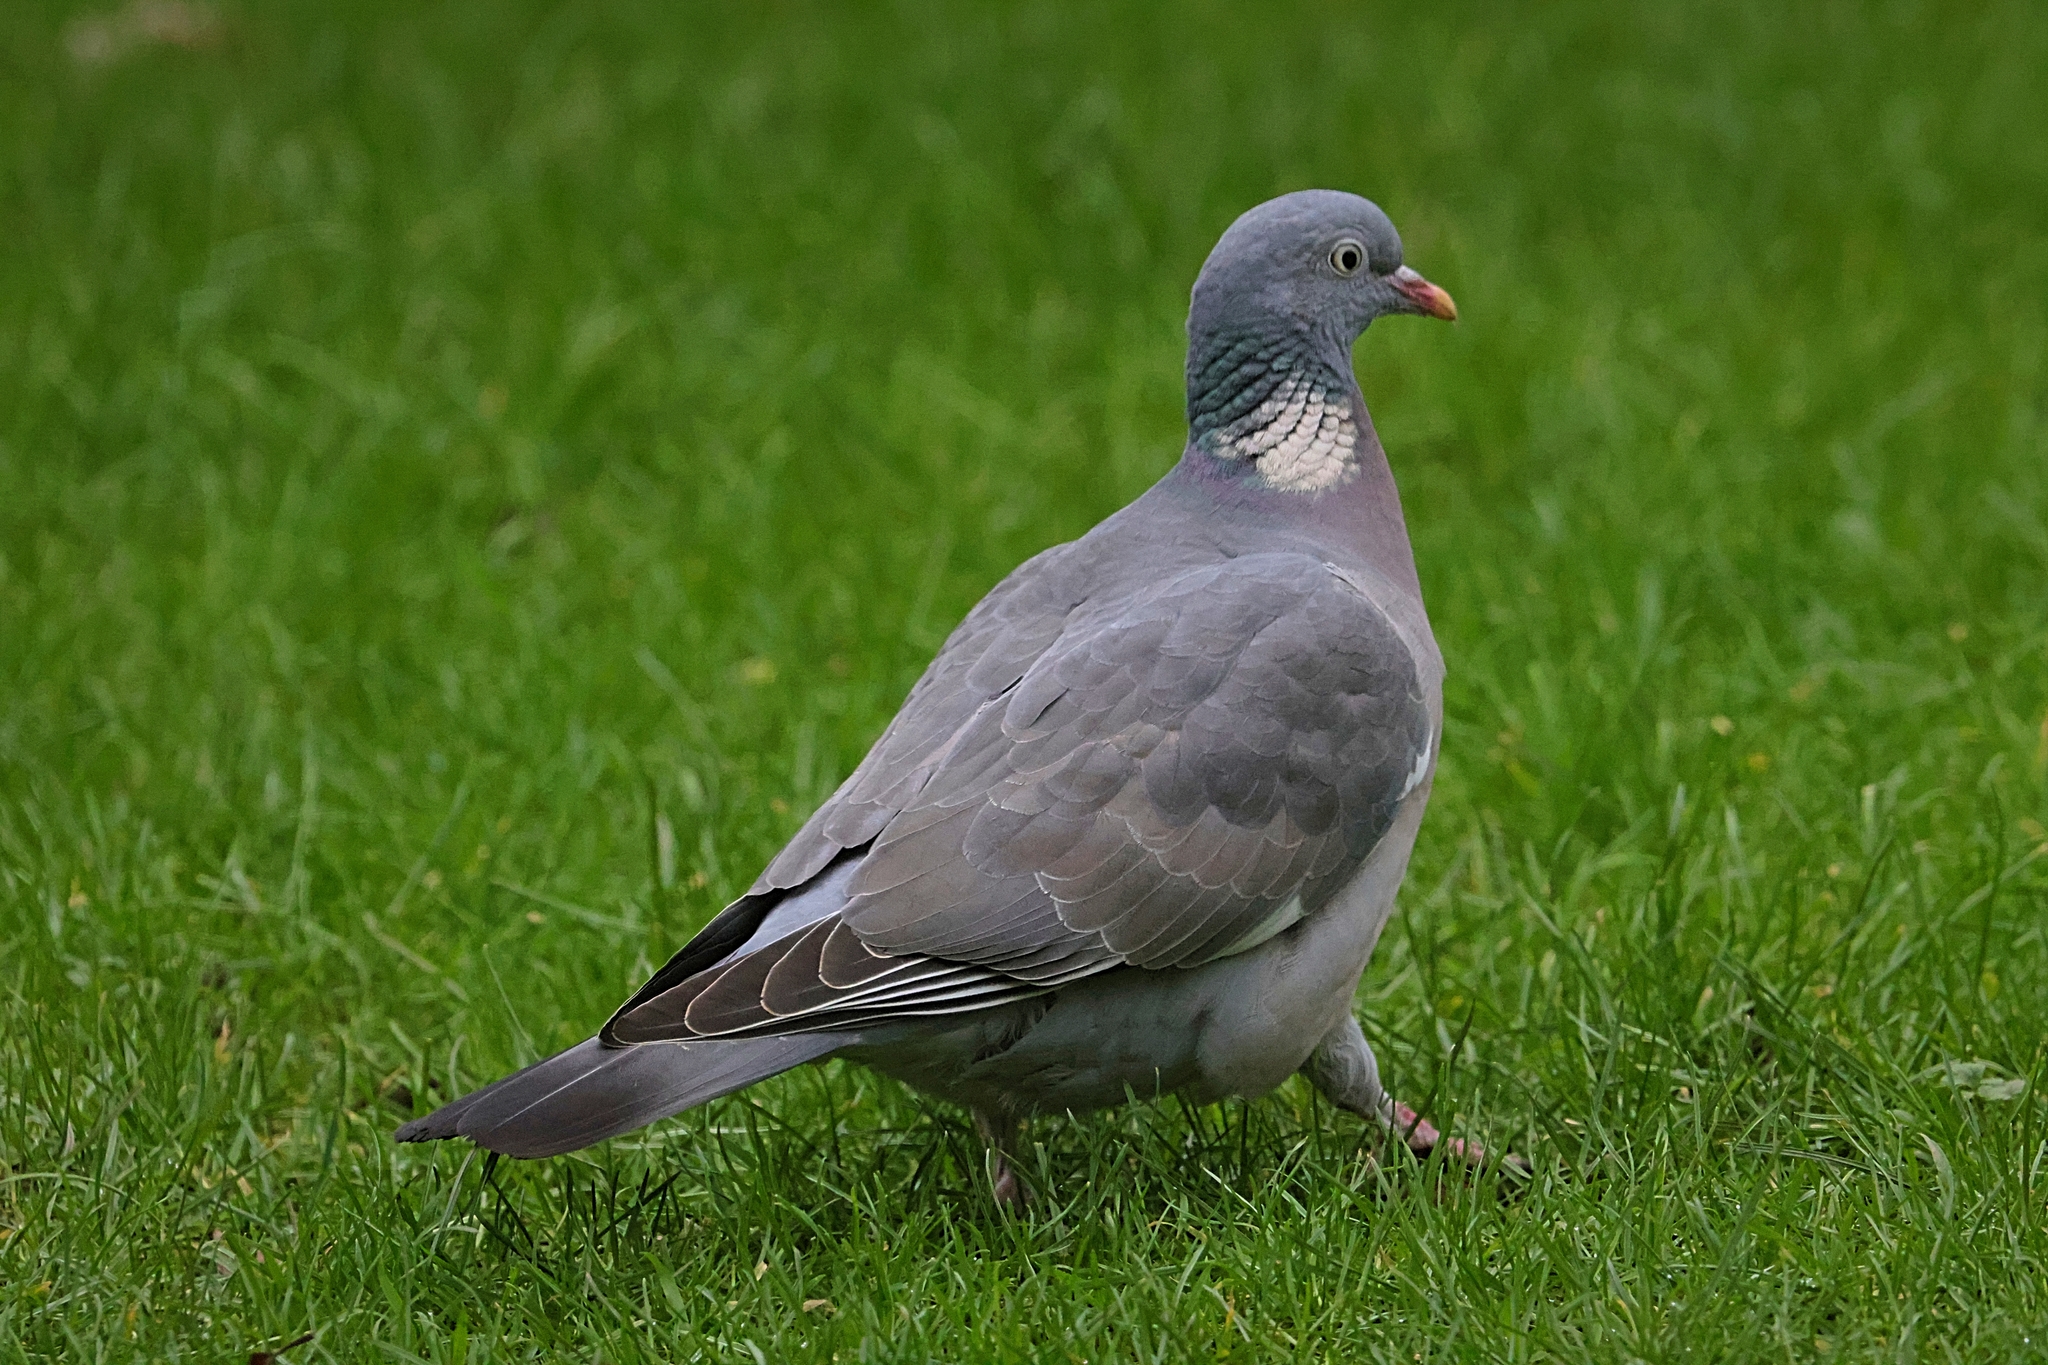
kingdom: Animalia
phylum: Chordata
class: Aves
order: Columbiformes
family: Columbidae
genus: Columba
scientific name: Columba palumbus
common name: Common wood pigeon
